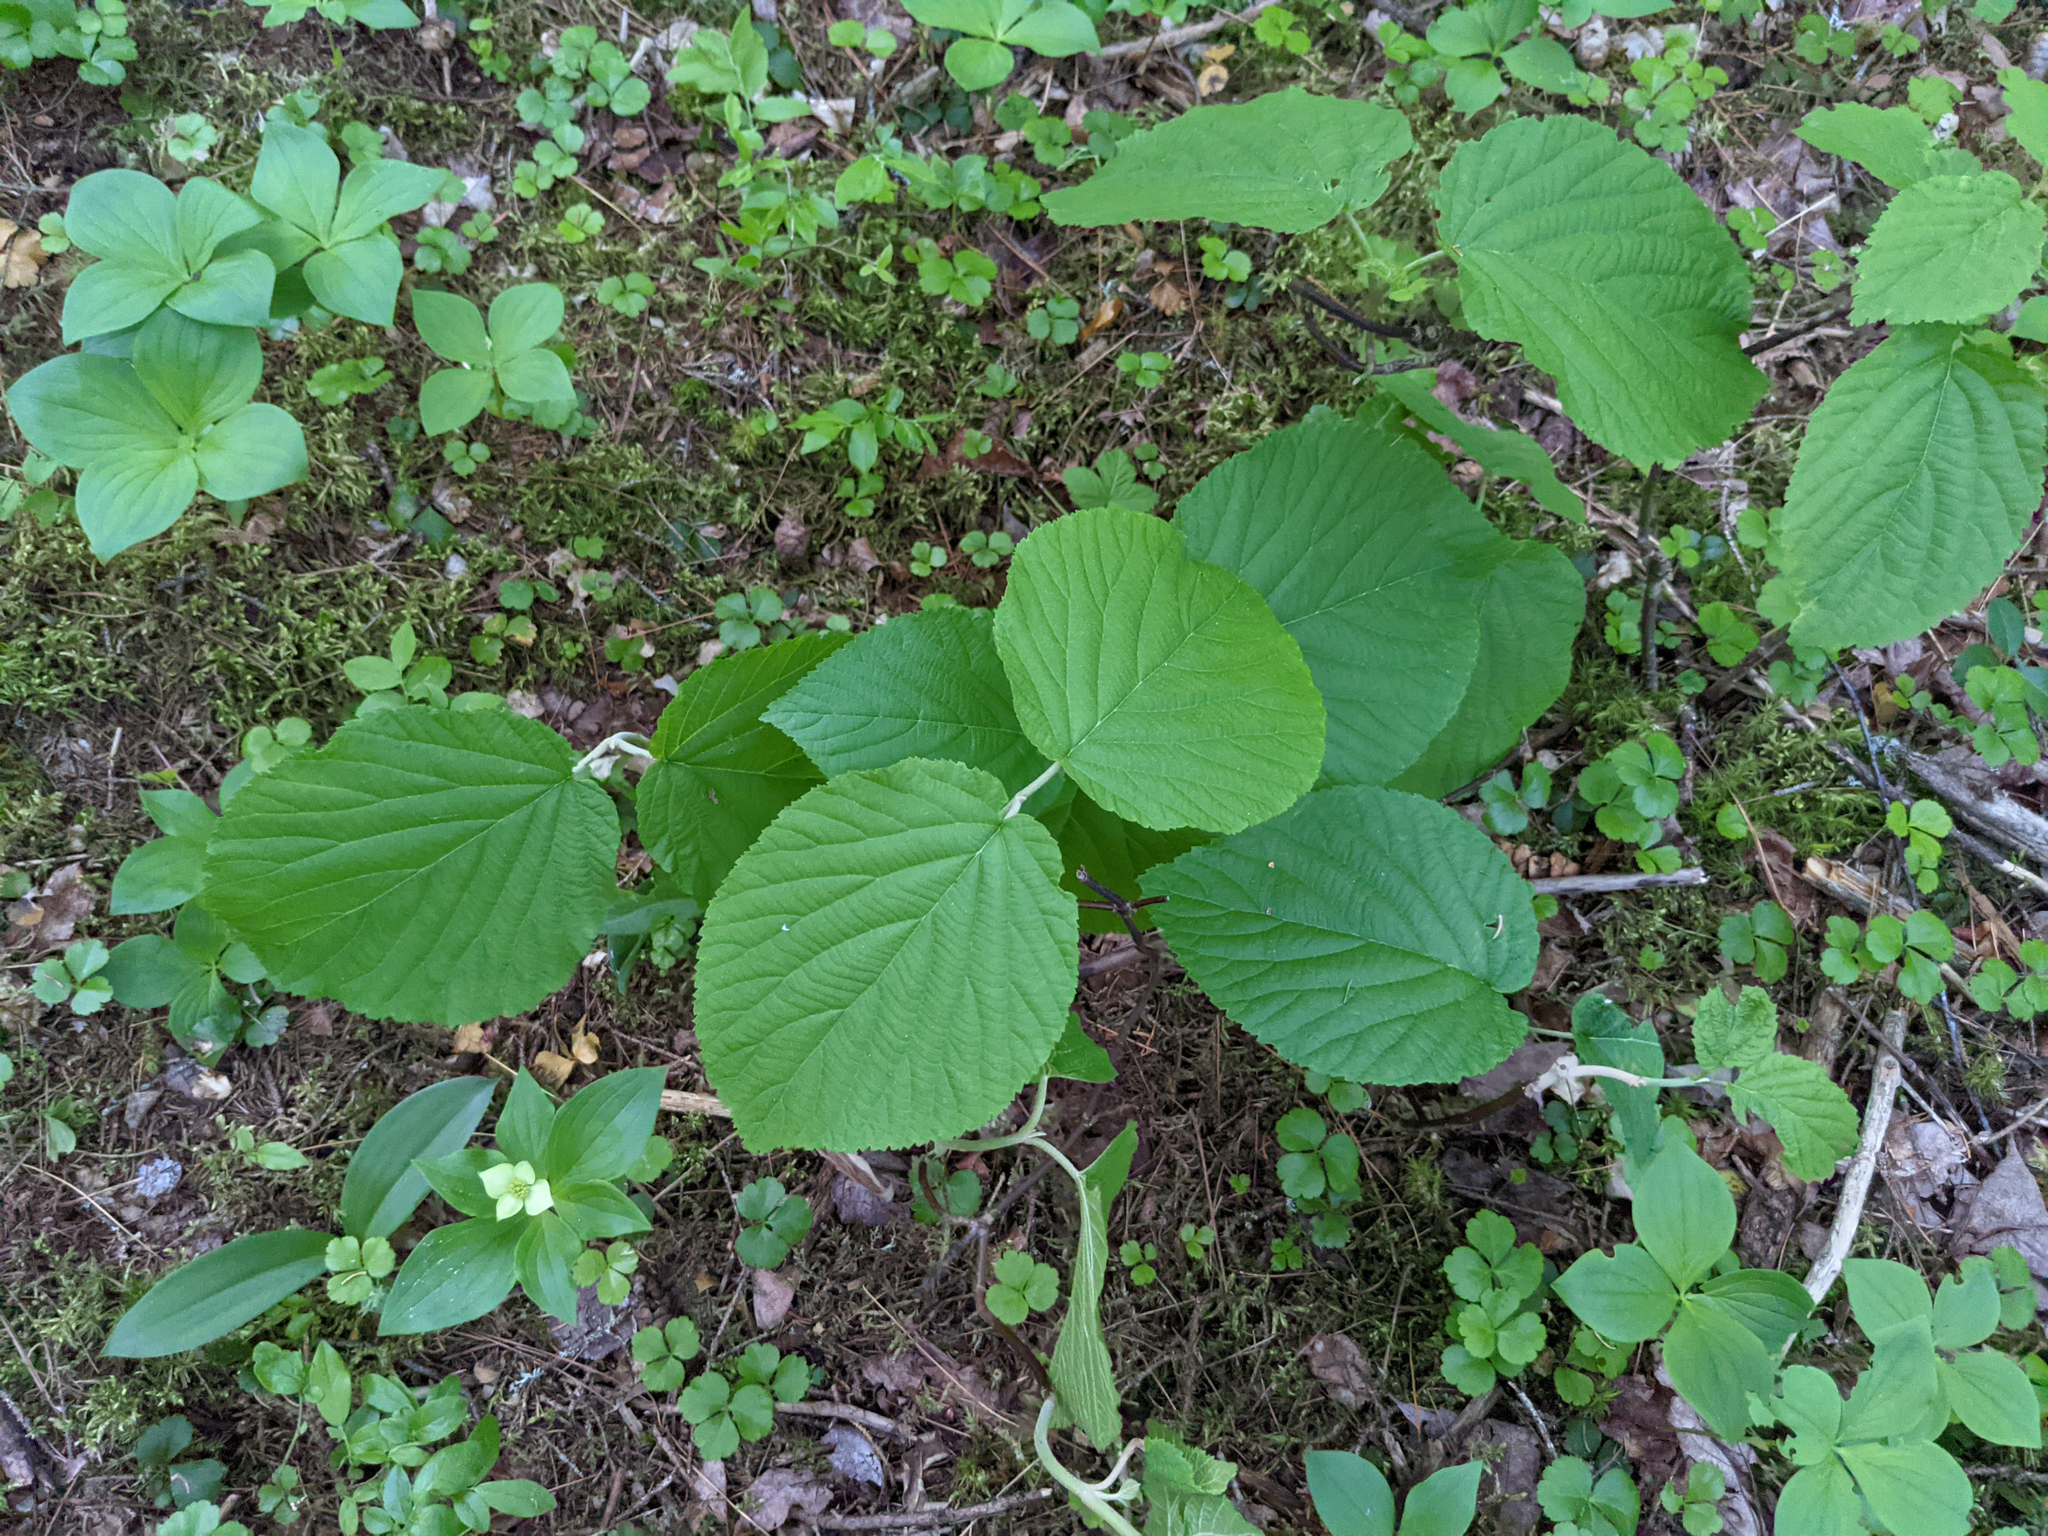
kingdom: Plantae
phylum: Tracheophyta
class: Magnoliopsida
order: Dipsacales
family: Viburnaceae
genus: Viburnum
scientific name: Viburnum lantanoides
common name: Hobblebush
